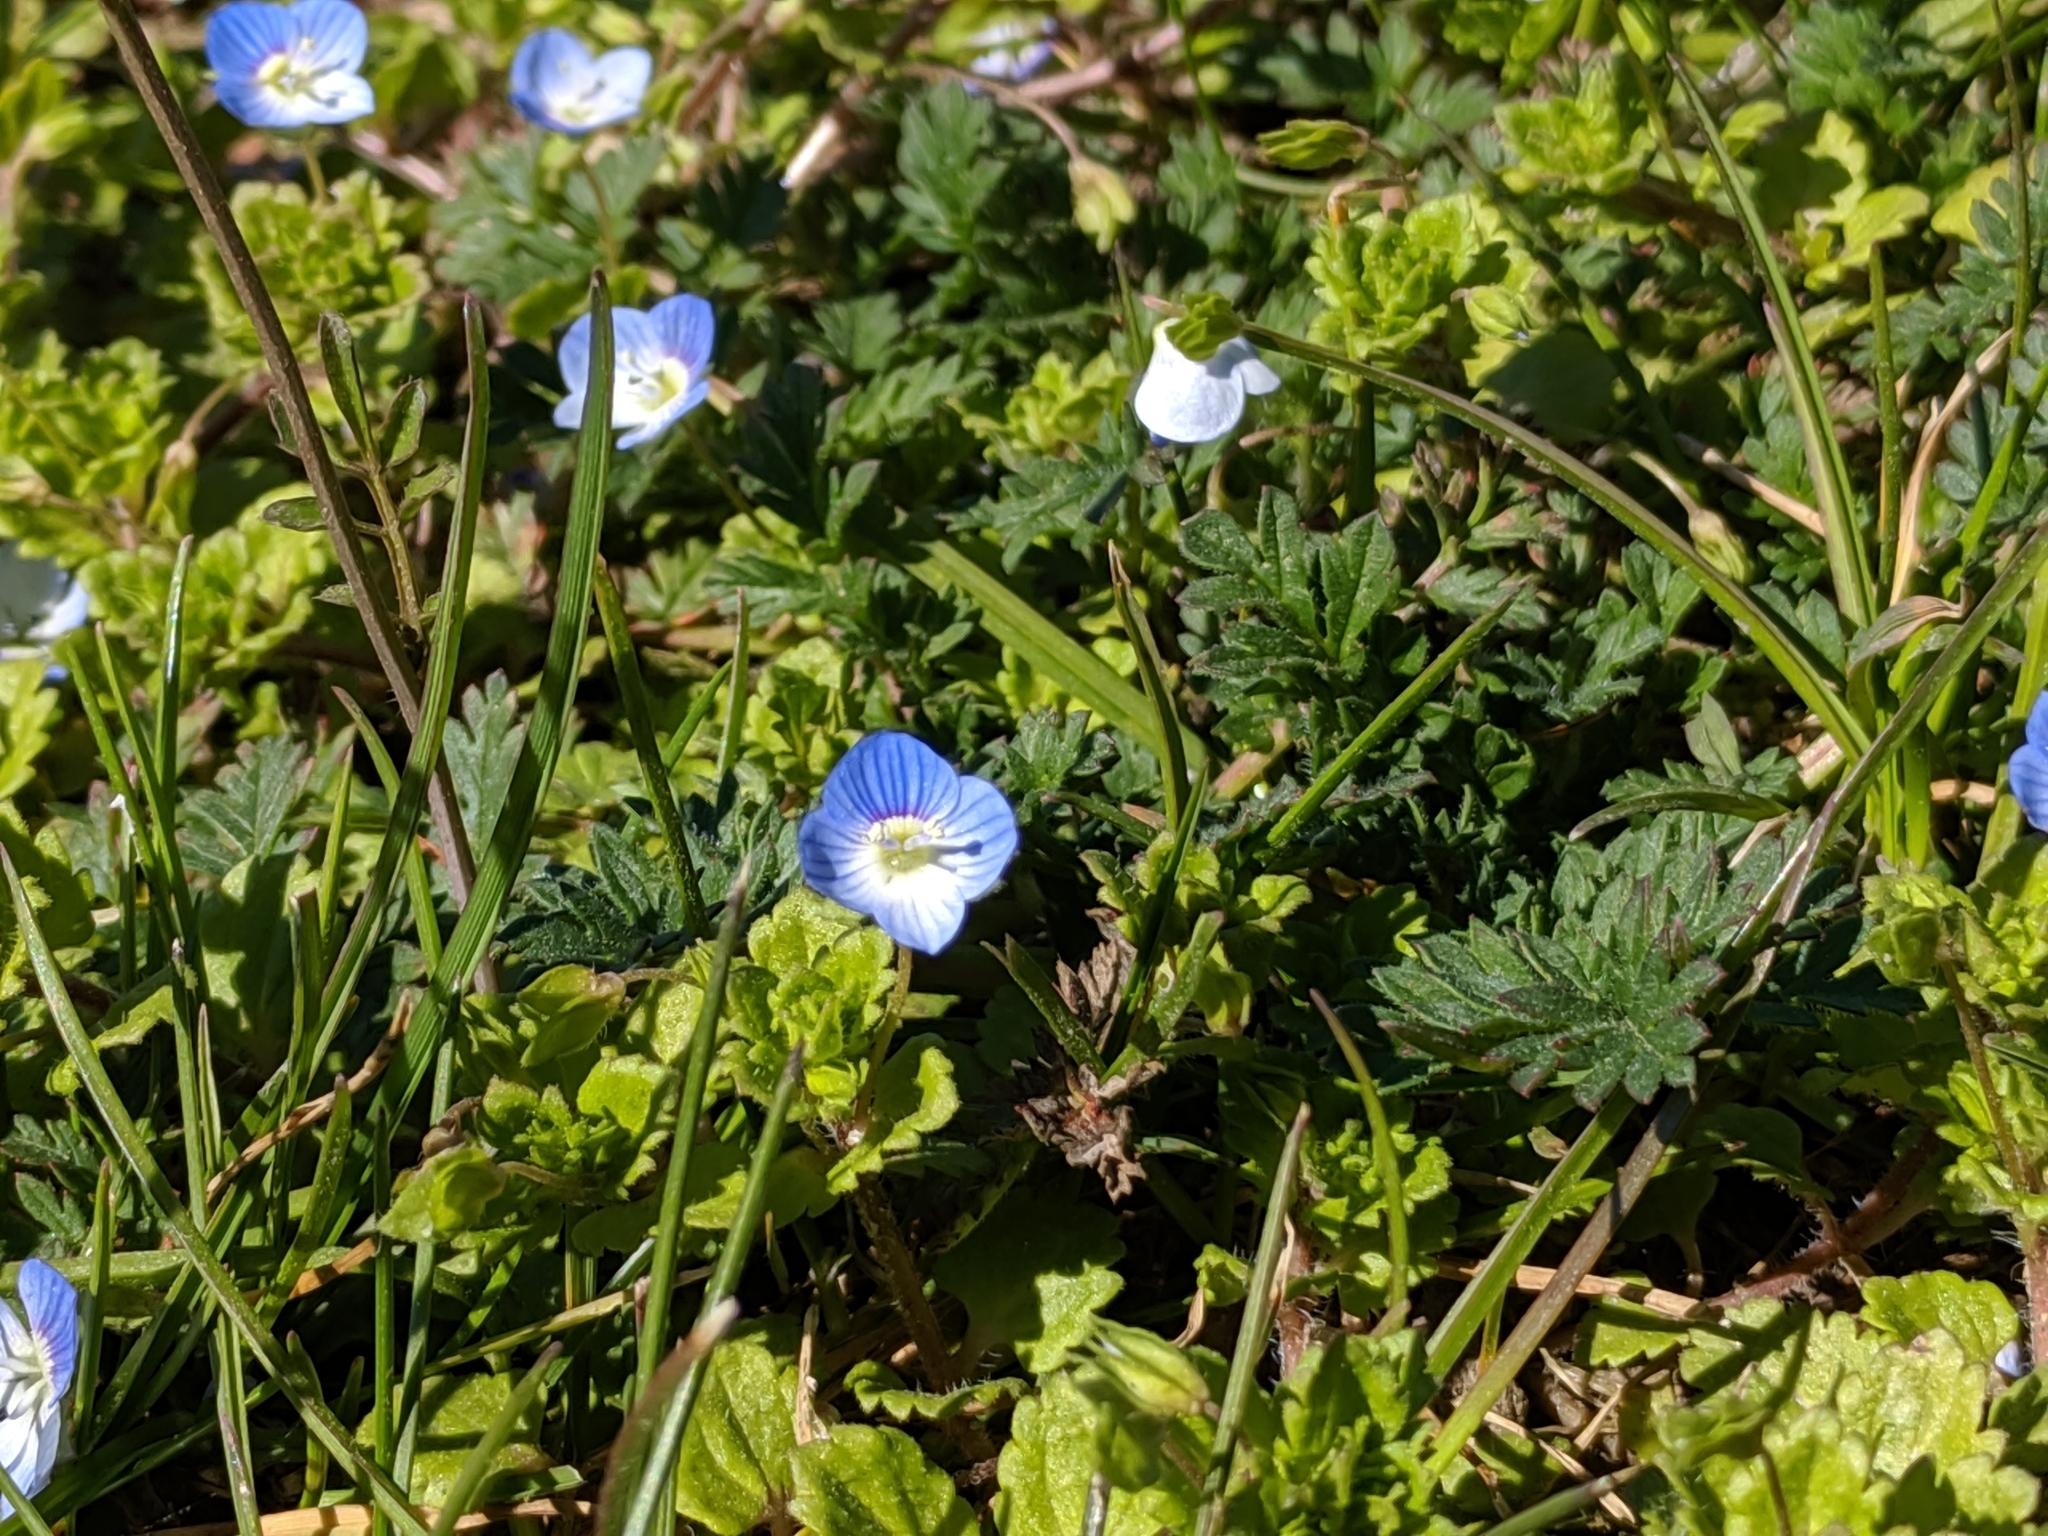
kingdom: Plantae
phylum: Tracheophyta
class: Magnoliopsida
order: Lamiales
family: Plantaginaceae
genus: Veronica
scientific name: Veronica persica
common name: Common field-speedwell
